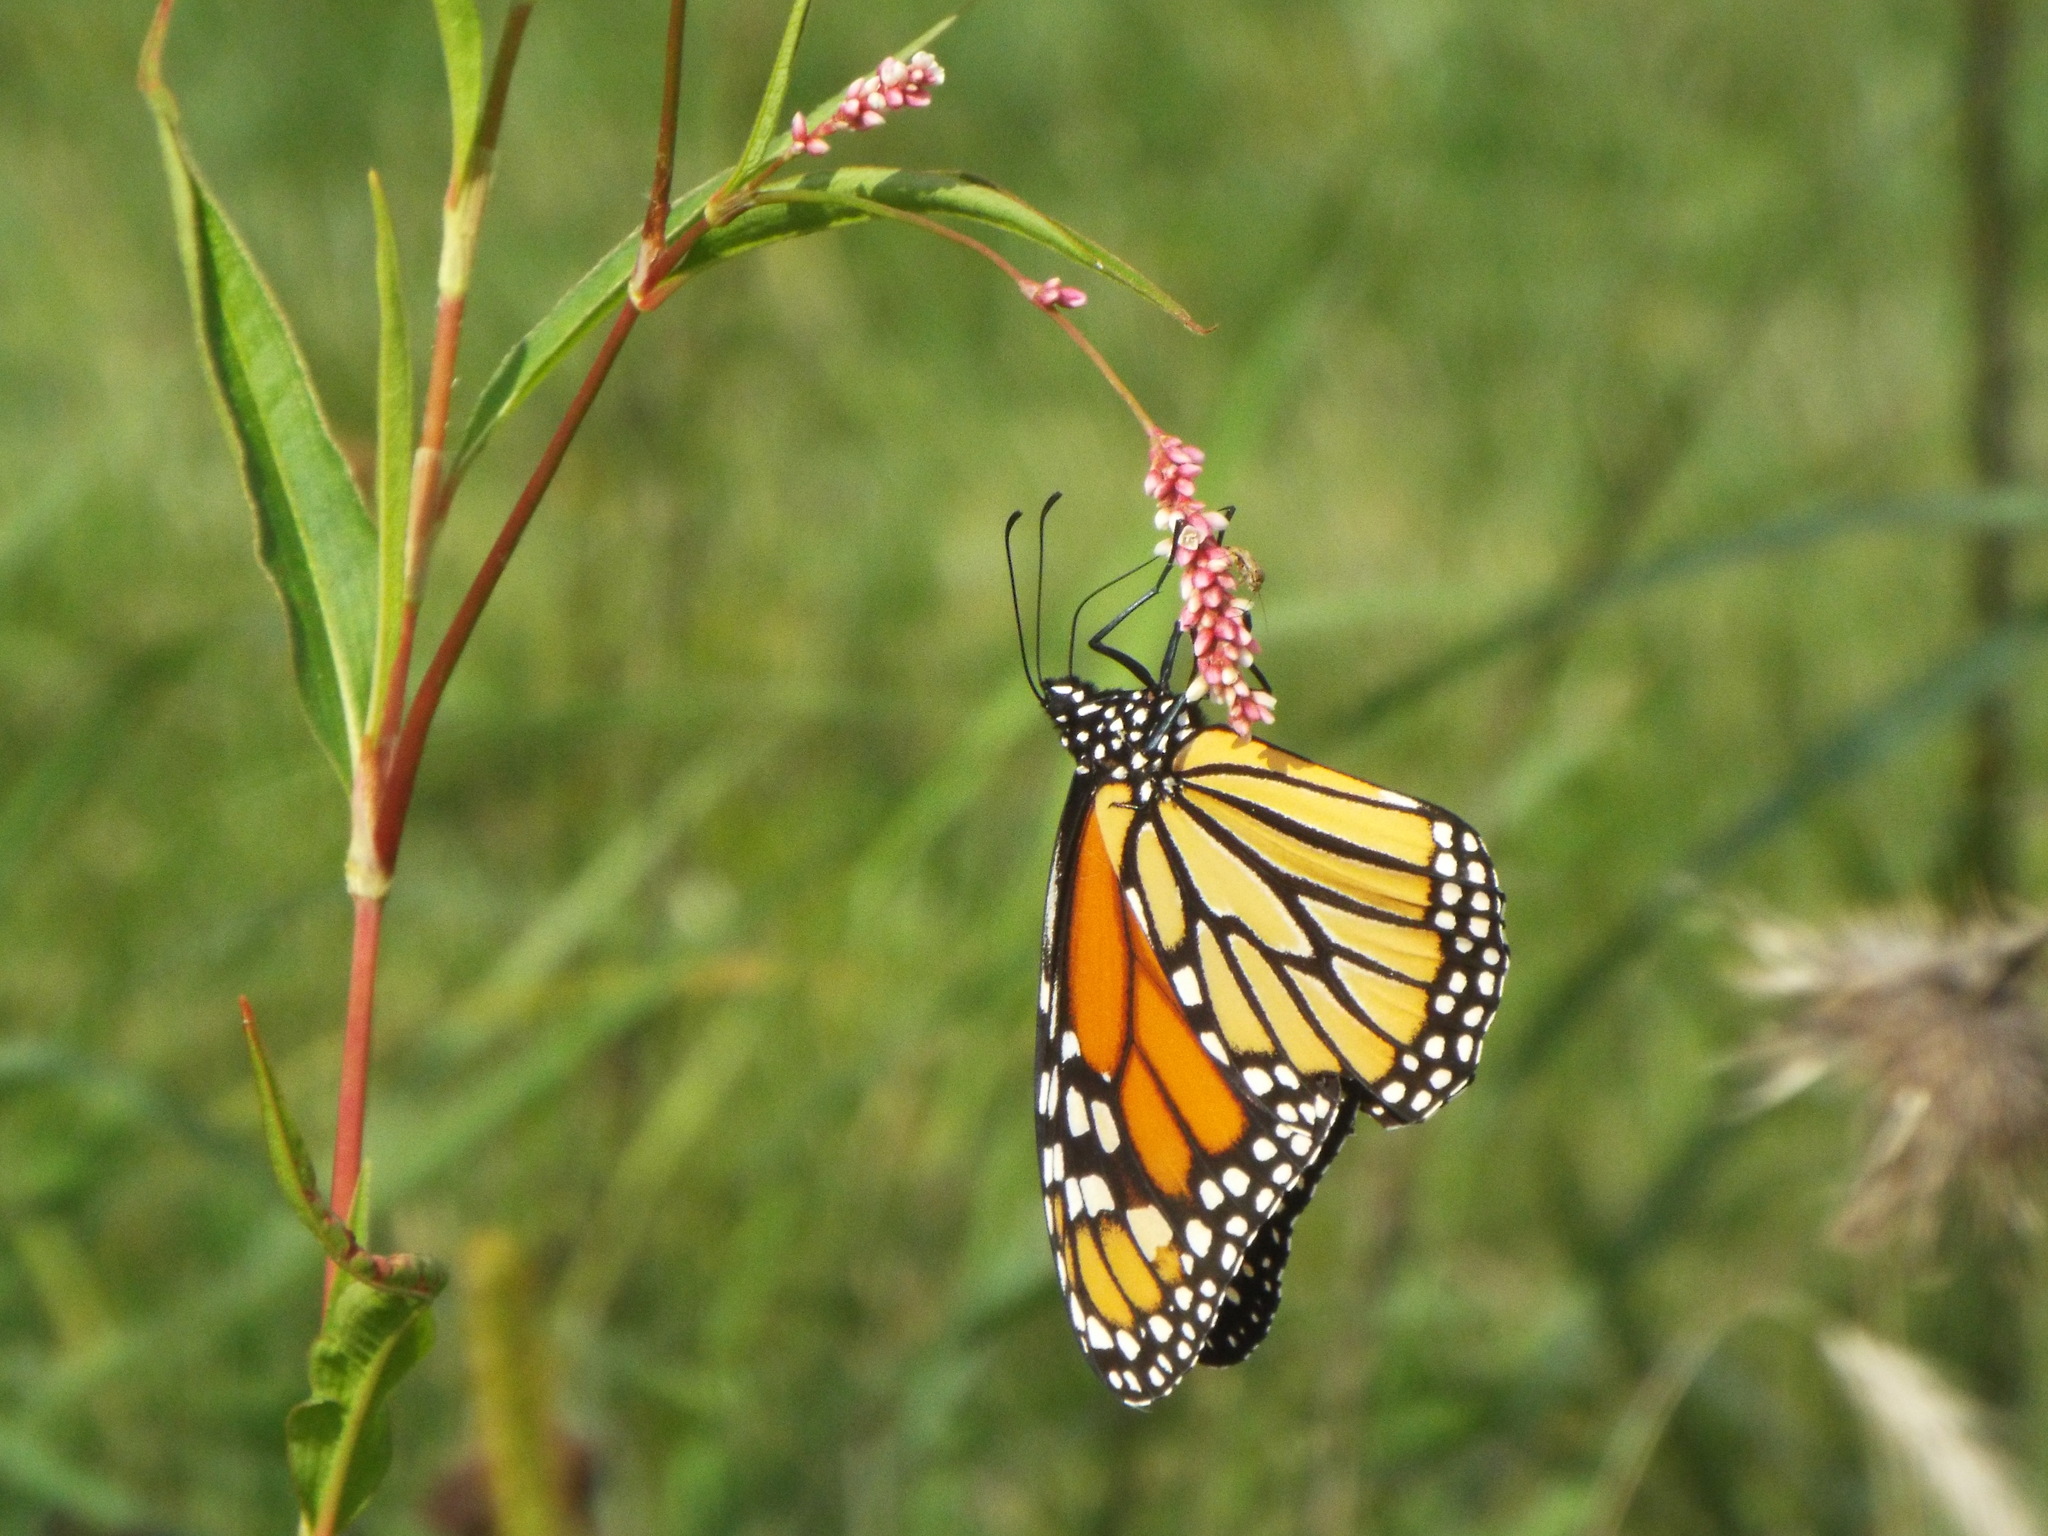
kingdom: Animalia
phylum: Arthropoda
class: Insecta
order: Lepidoptera
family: Nymphalidae
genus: Danaus
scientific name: Danaus plexippus
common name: Monarch
